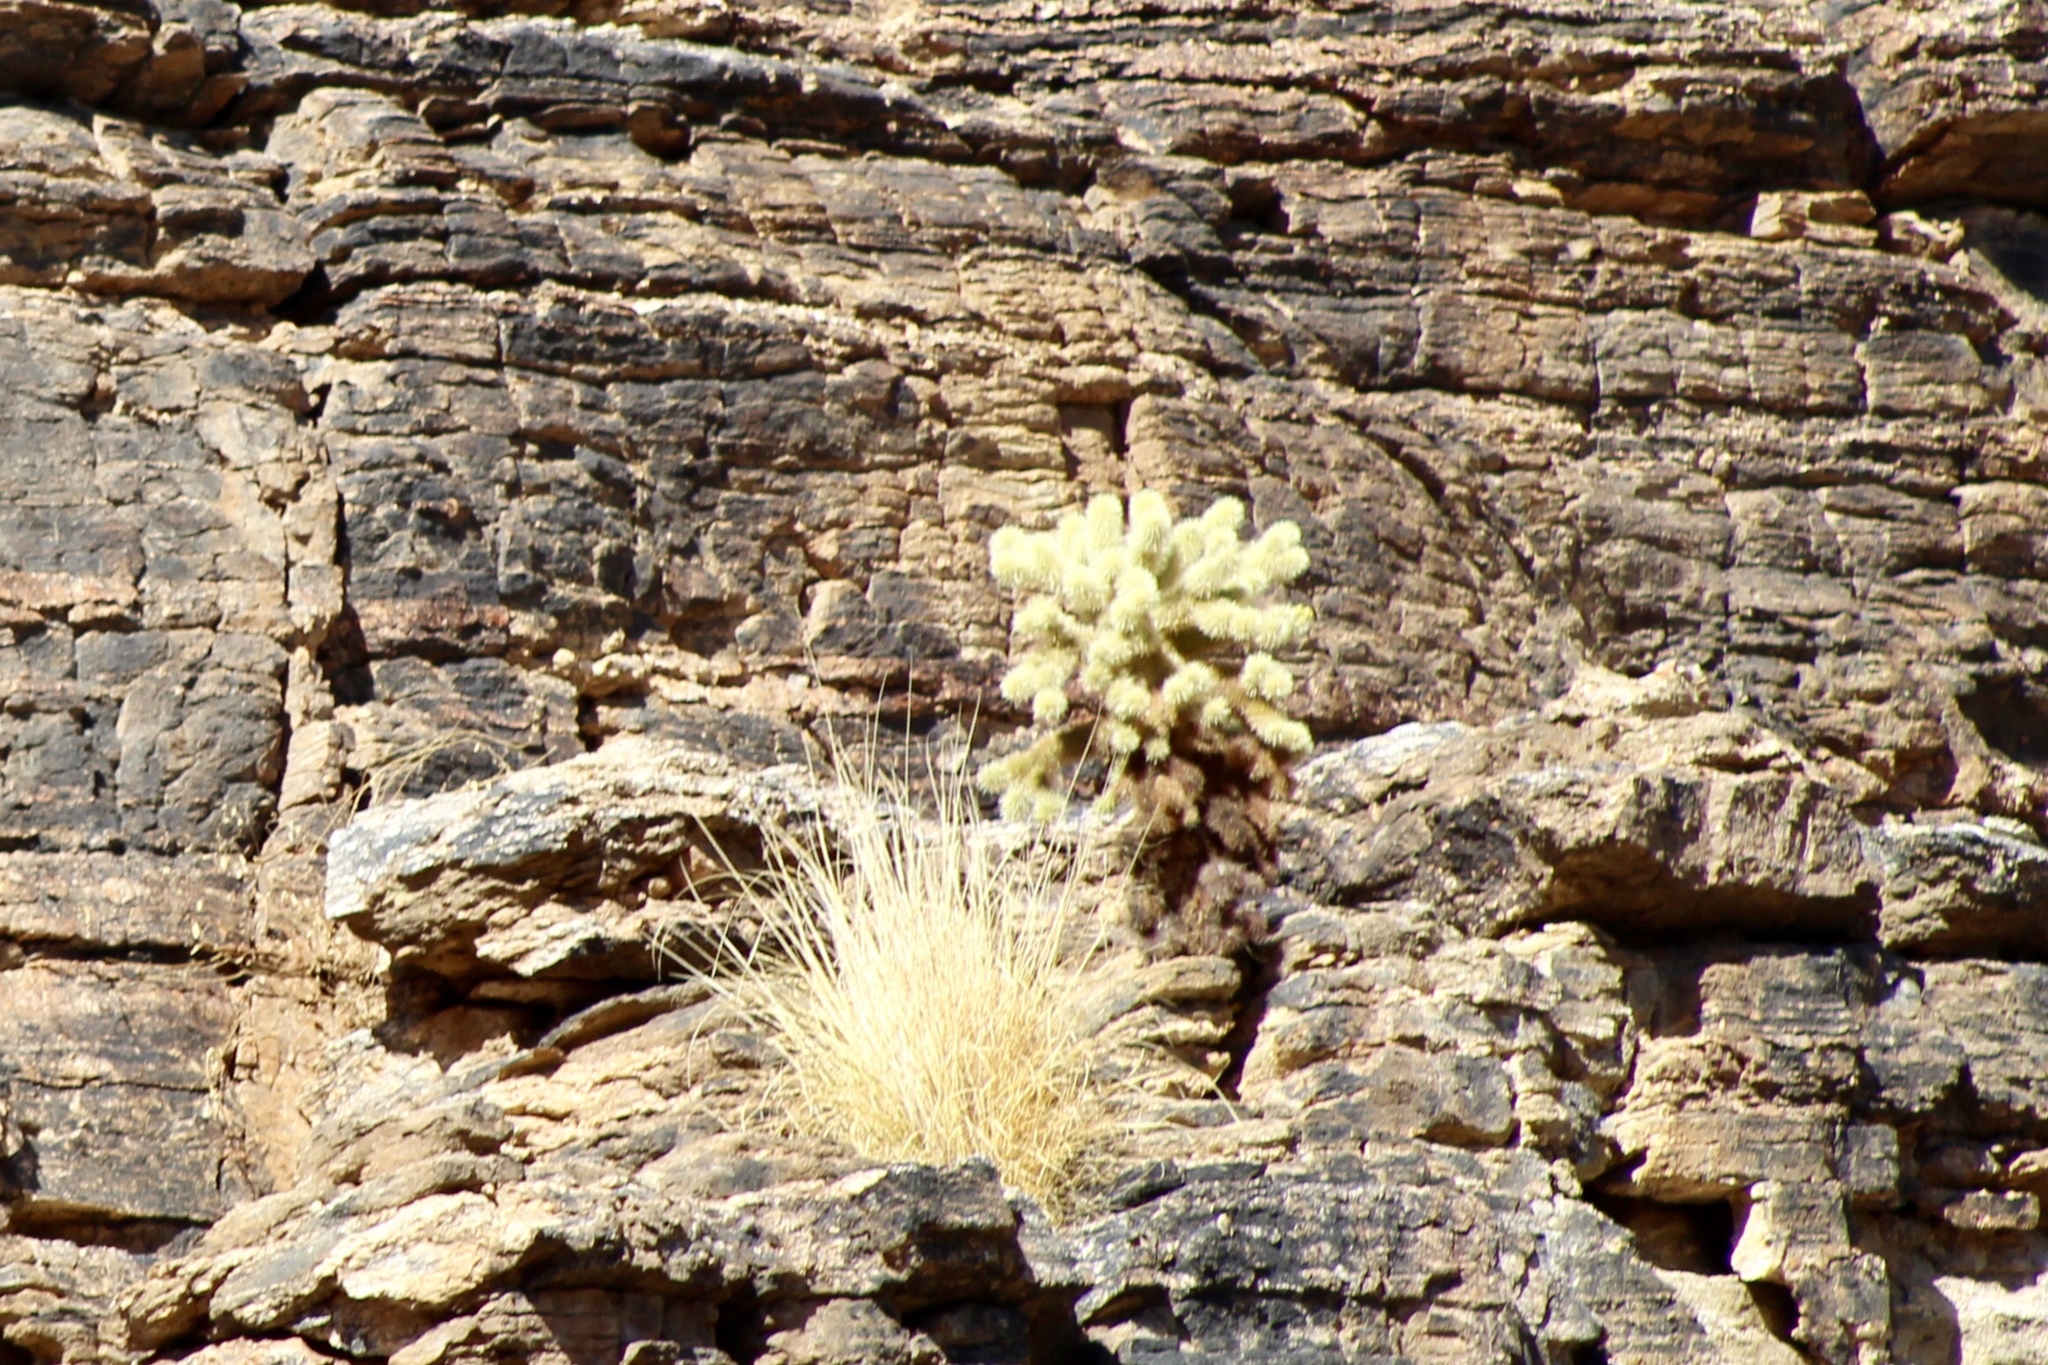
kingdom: Plantae
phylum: Tracheophyta
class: Magnoliopsida
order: Caryophyllales
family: Cactaceae
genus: Cylindropuntia
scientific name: Cylindropuntia fosbergii
